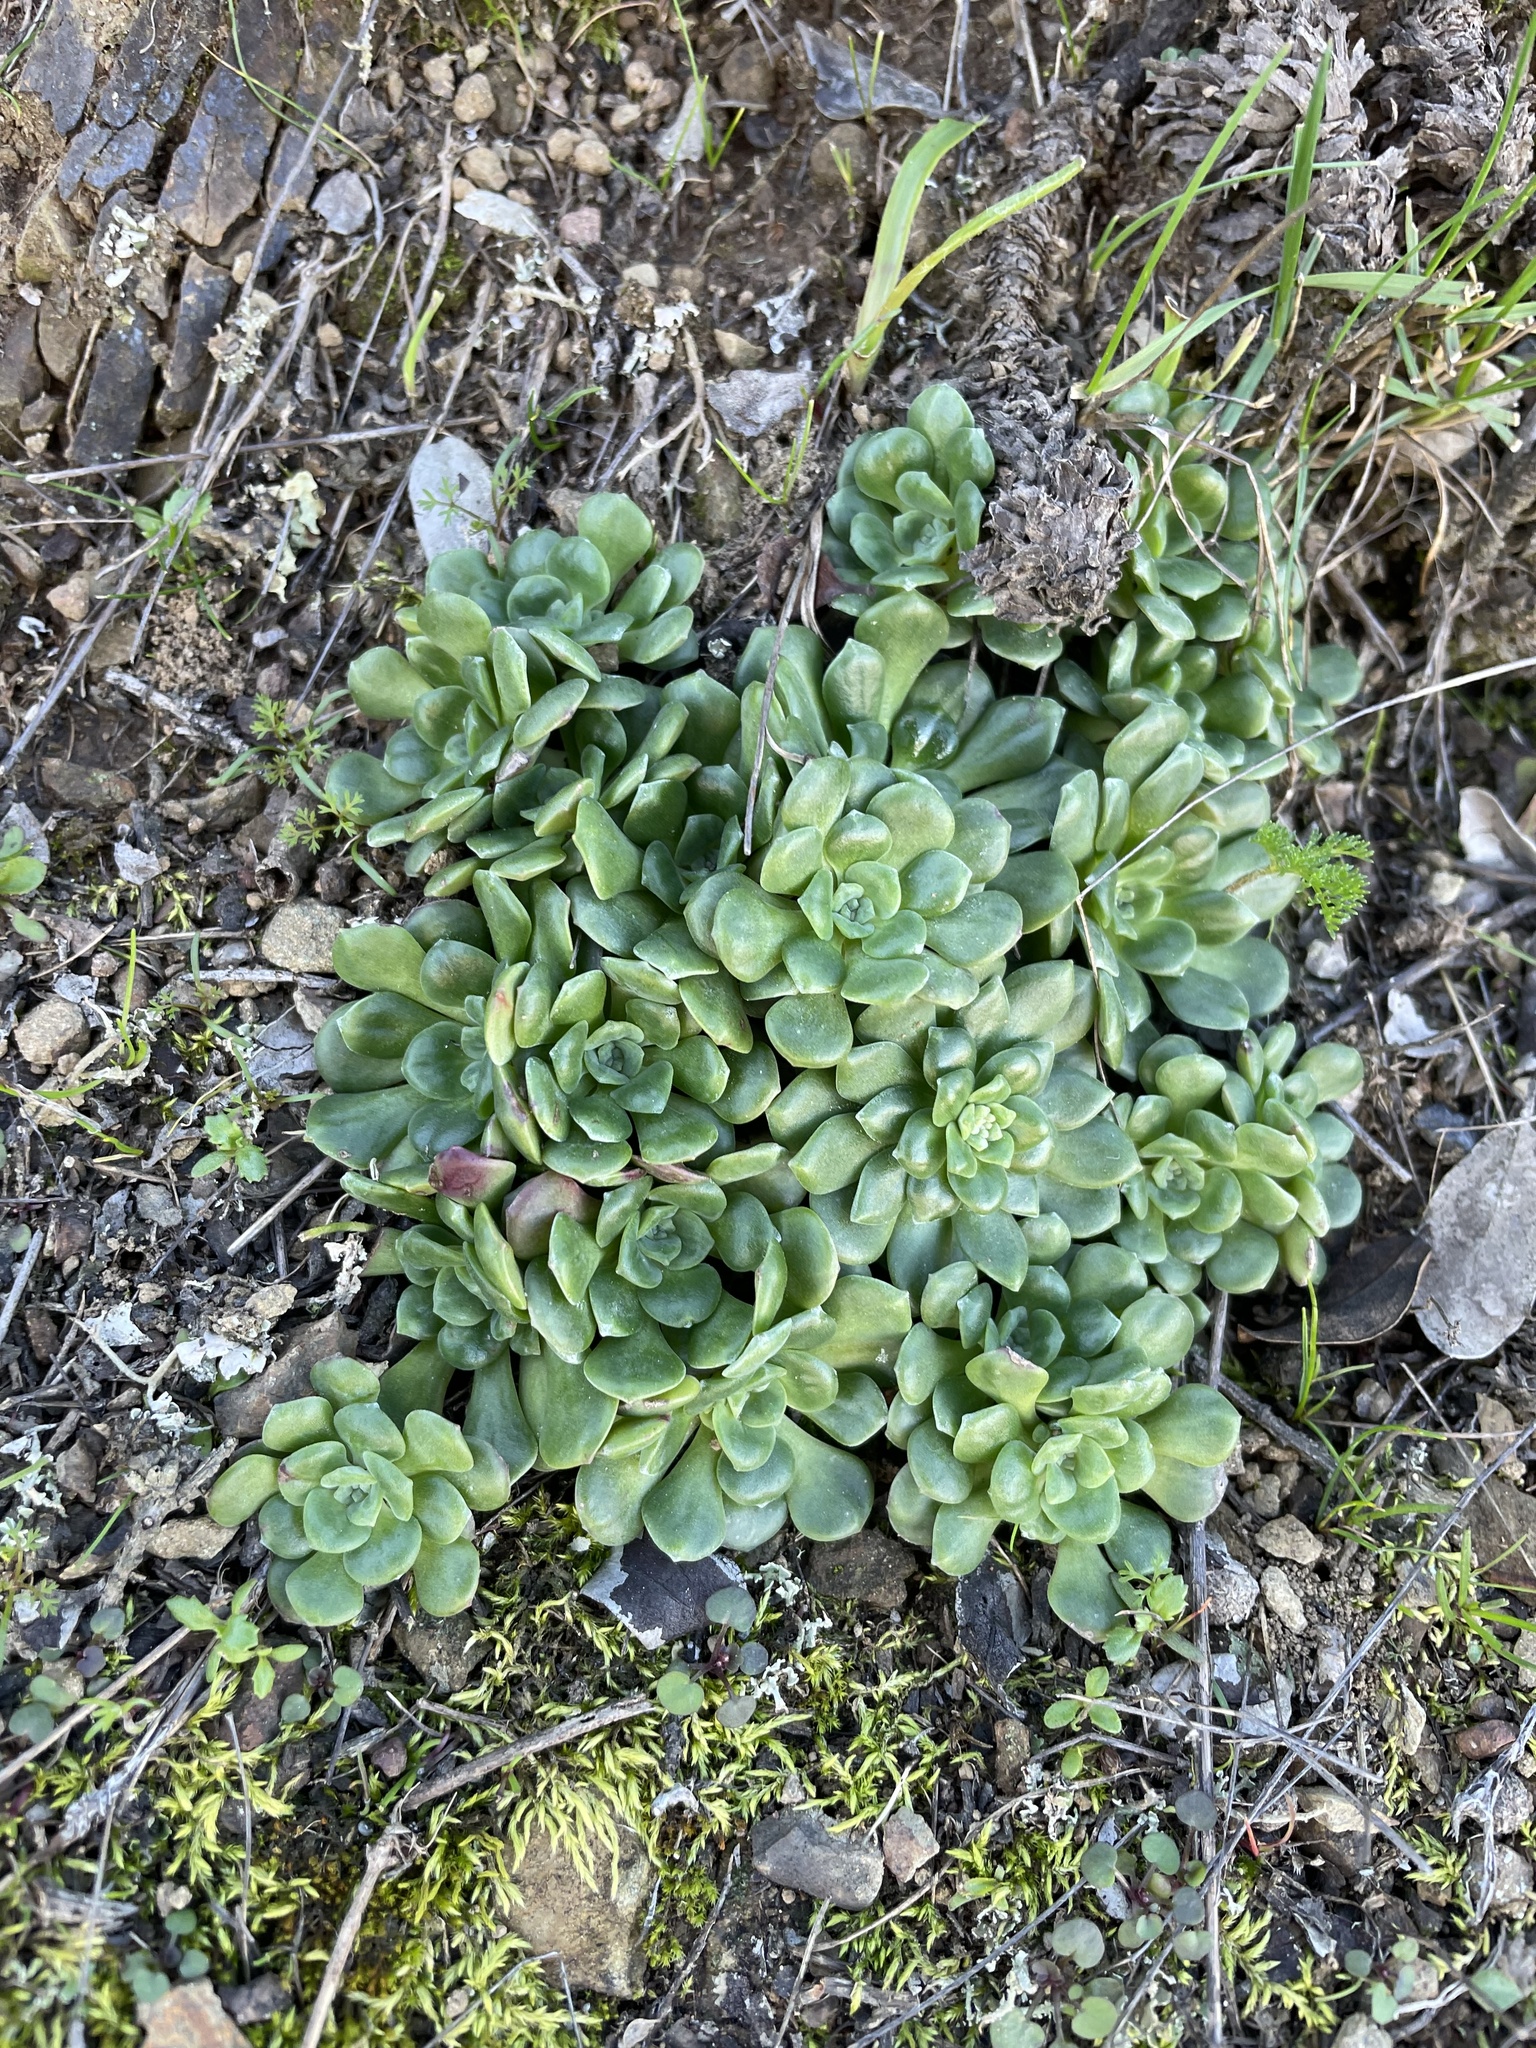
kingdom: Plantae
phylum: Tracheophyta
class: Magnoliopsida
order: Saxifragales
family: Crassulaceae
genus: Sedum
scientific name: Sedum spathulifolium
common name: Colorado stonecrop
